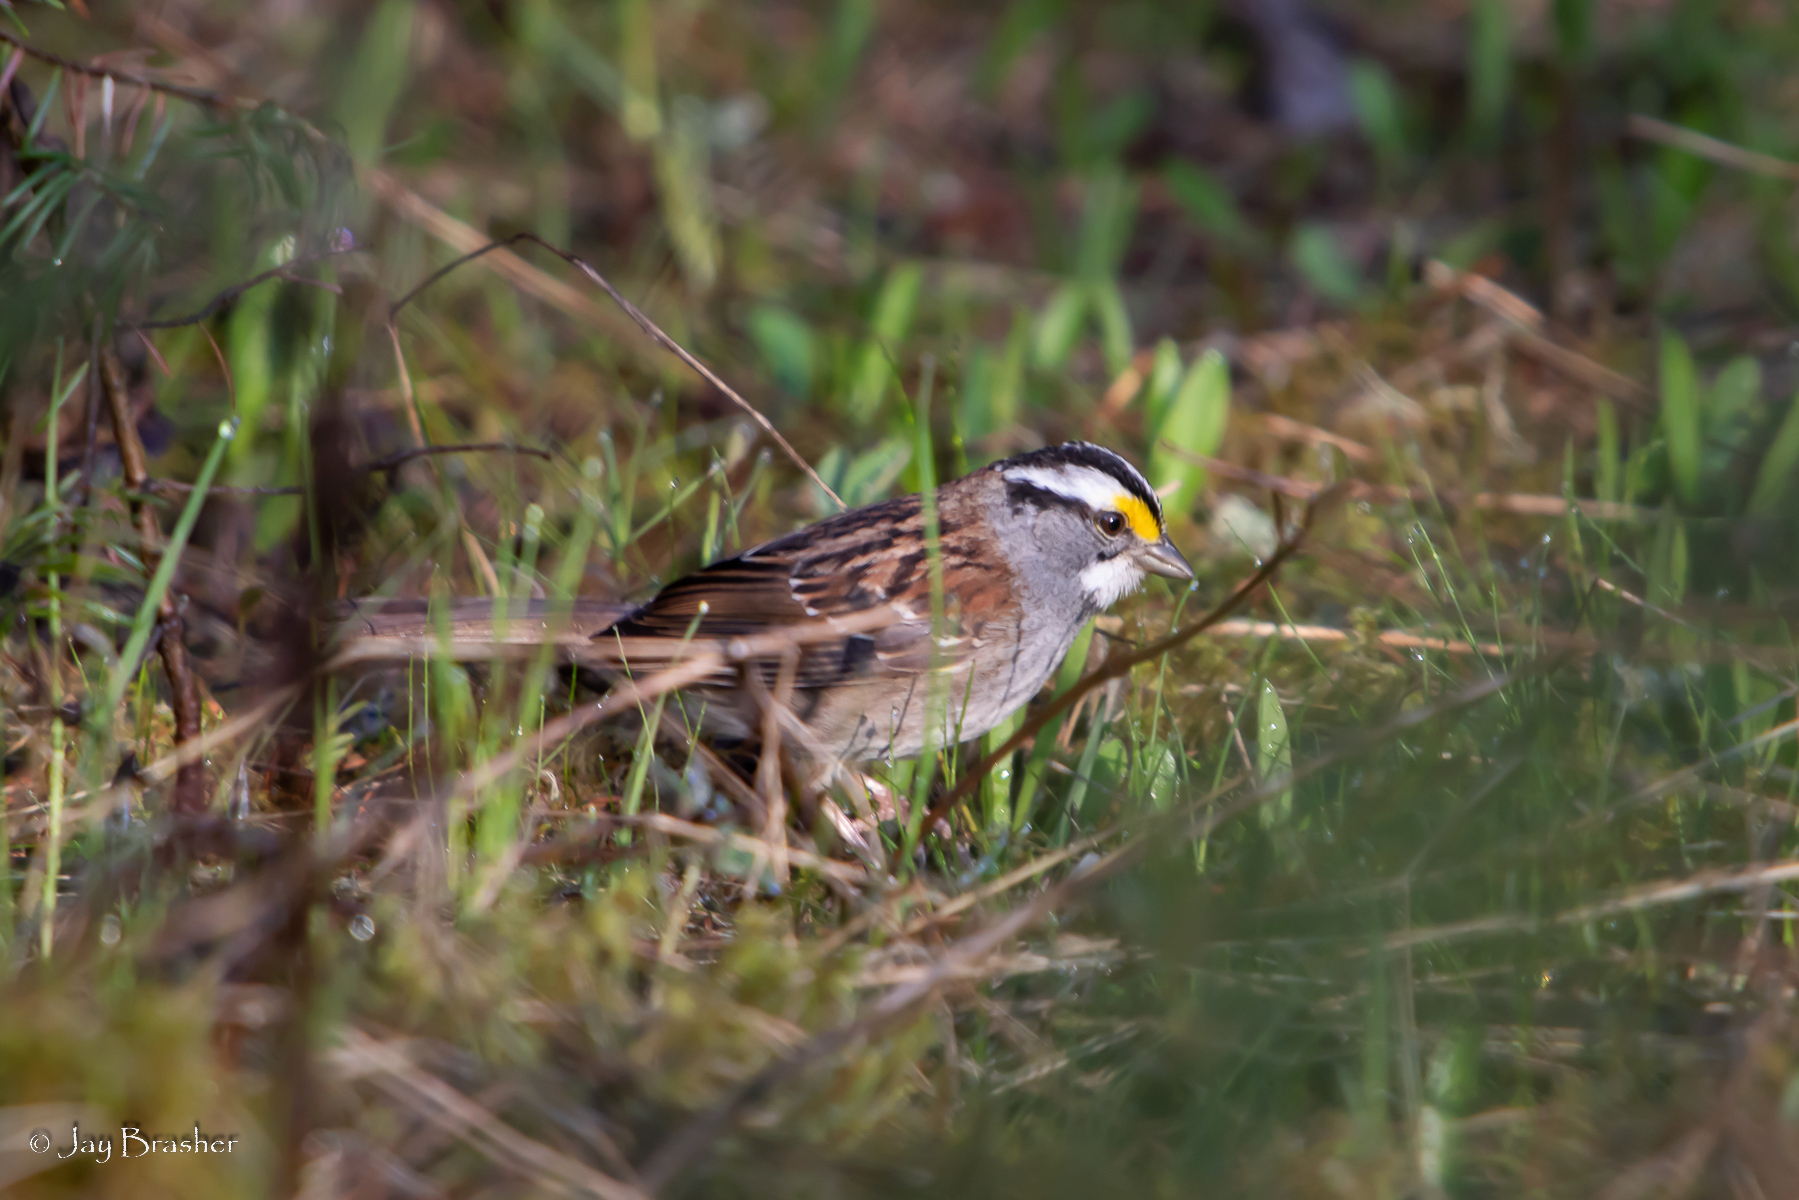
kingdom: Animalia
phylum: Chordata
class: Aves
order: Passeriformes
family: Passerellidae
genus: Zonotrichia
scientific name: Zonotrichia albicollis
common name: White-throated sparrow
